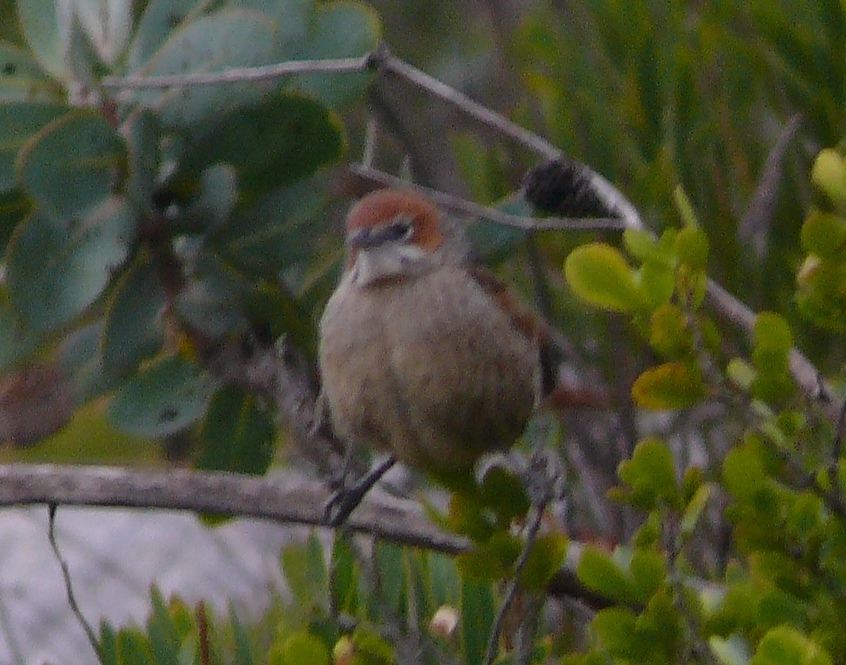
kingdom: Animalia
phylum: Chordata
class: Aves
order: Passeriformes
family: Macrosphenidae
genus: Sphenoeacus
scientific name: Sphenoeacus afer
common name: Cape grassbird
